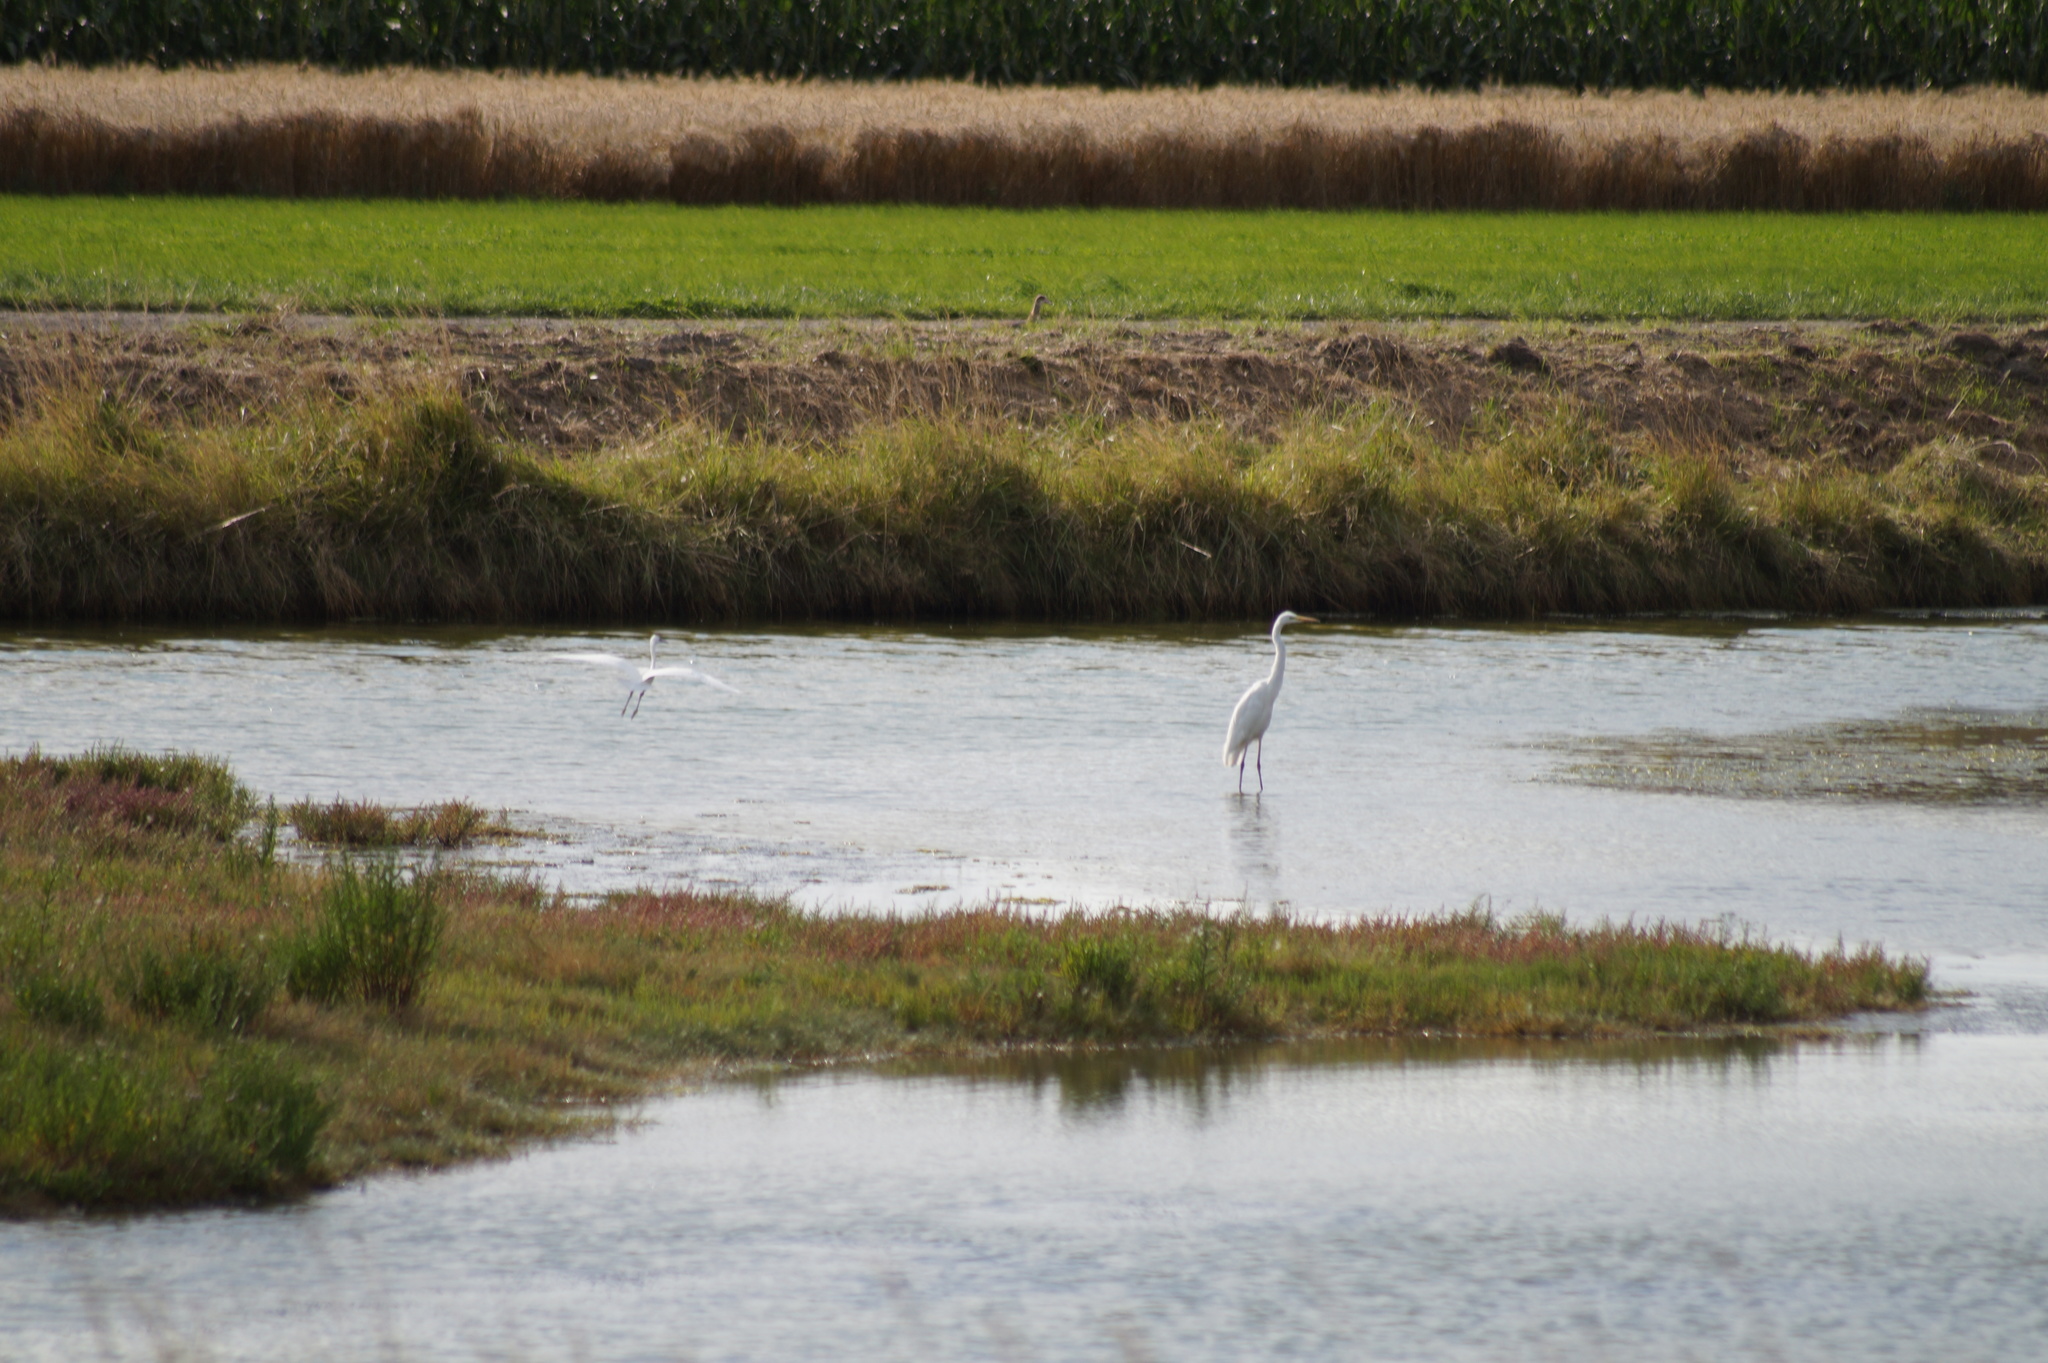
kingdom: Animalia
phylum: Chordata
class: Aves
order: Pelecaniformes
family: Ardeidae
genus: Ardea
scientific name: Ardea alba
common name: Great egret
